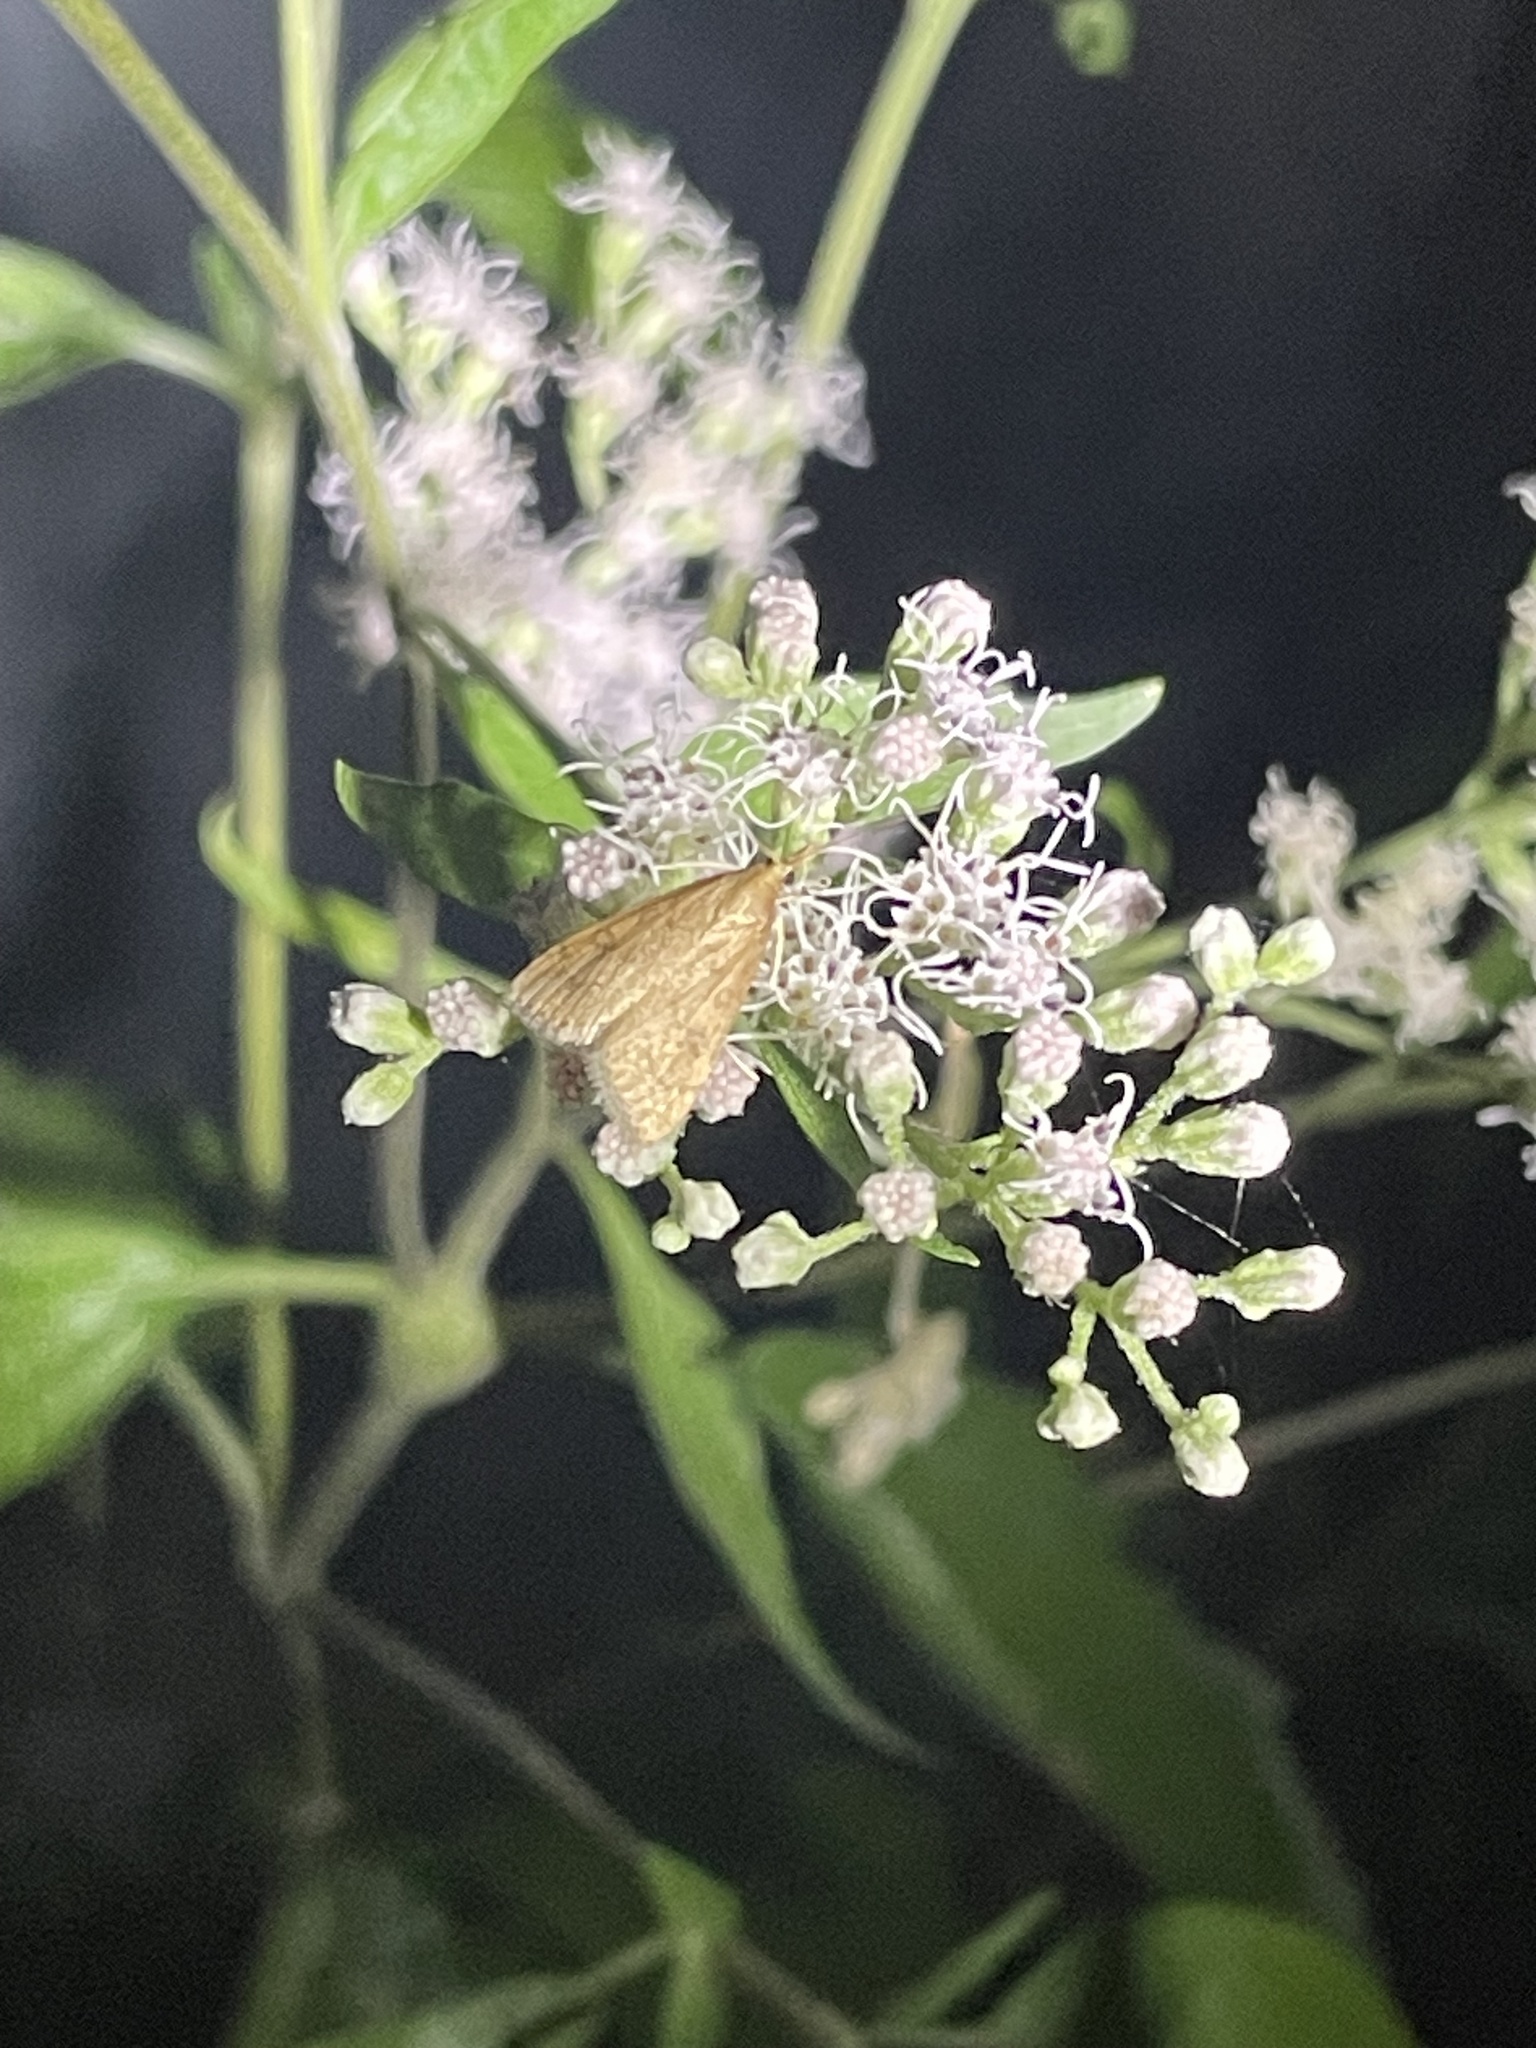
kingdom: Animalia
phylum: Arthropoda
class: Insecta
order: Lepidoptera
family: Crambidae
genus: Udea
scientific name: Udea rubigalis
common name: Celery leaftier moth
